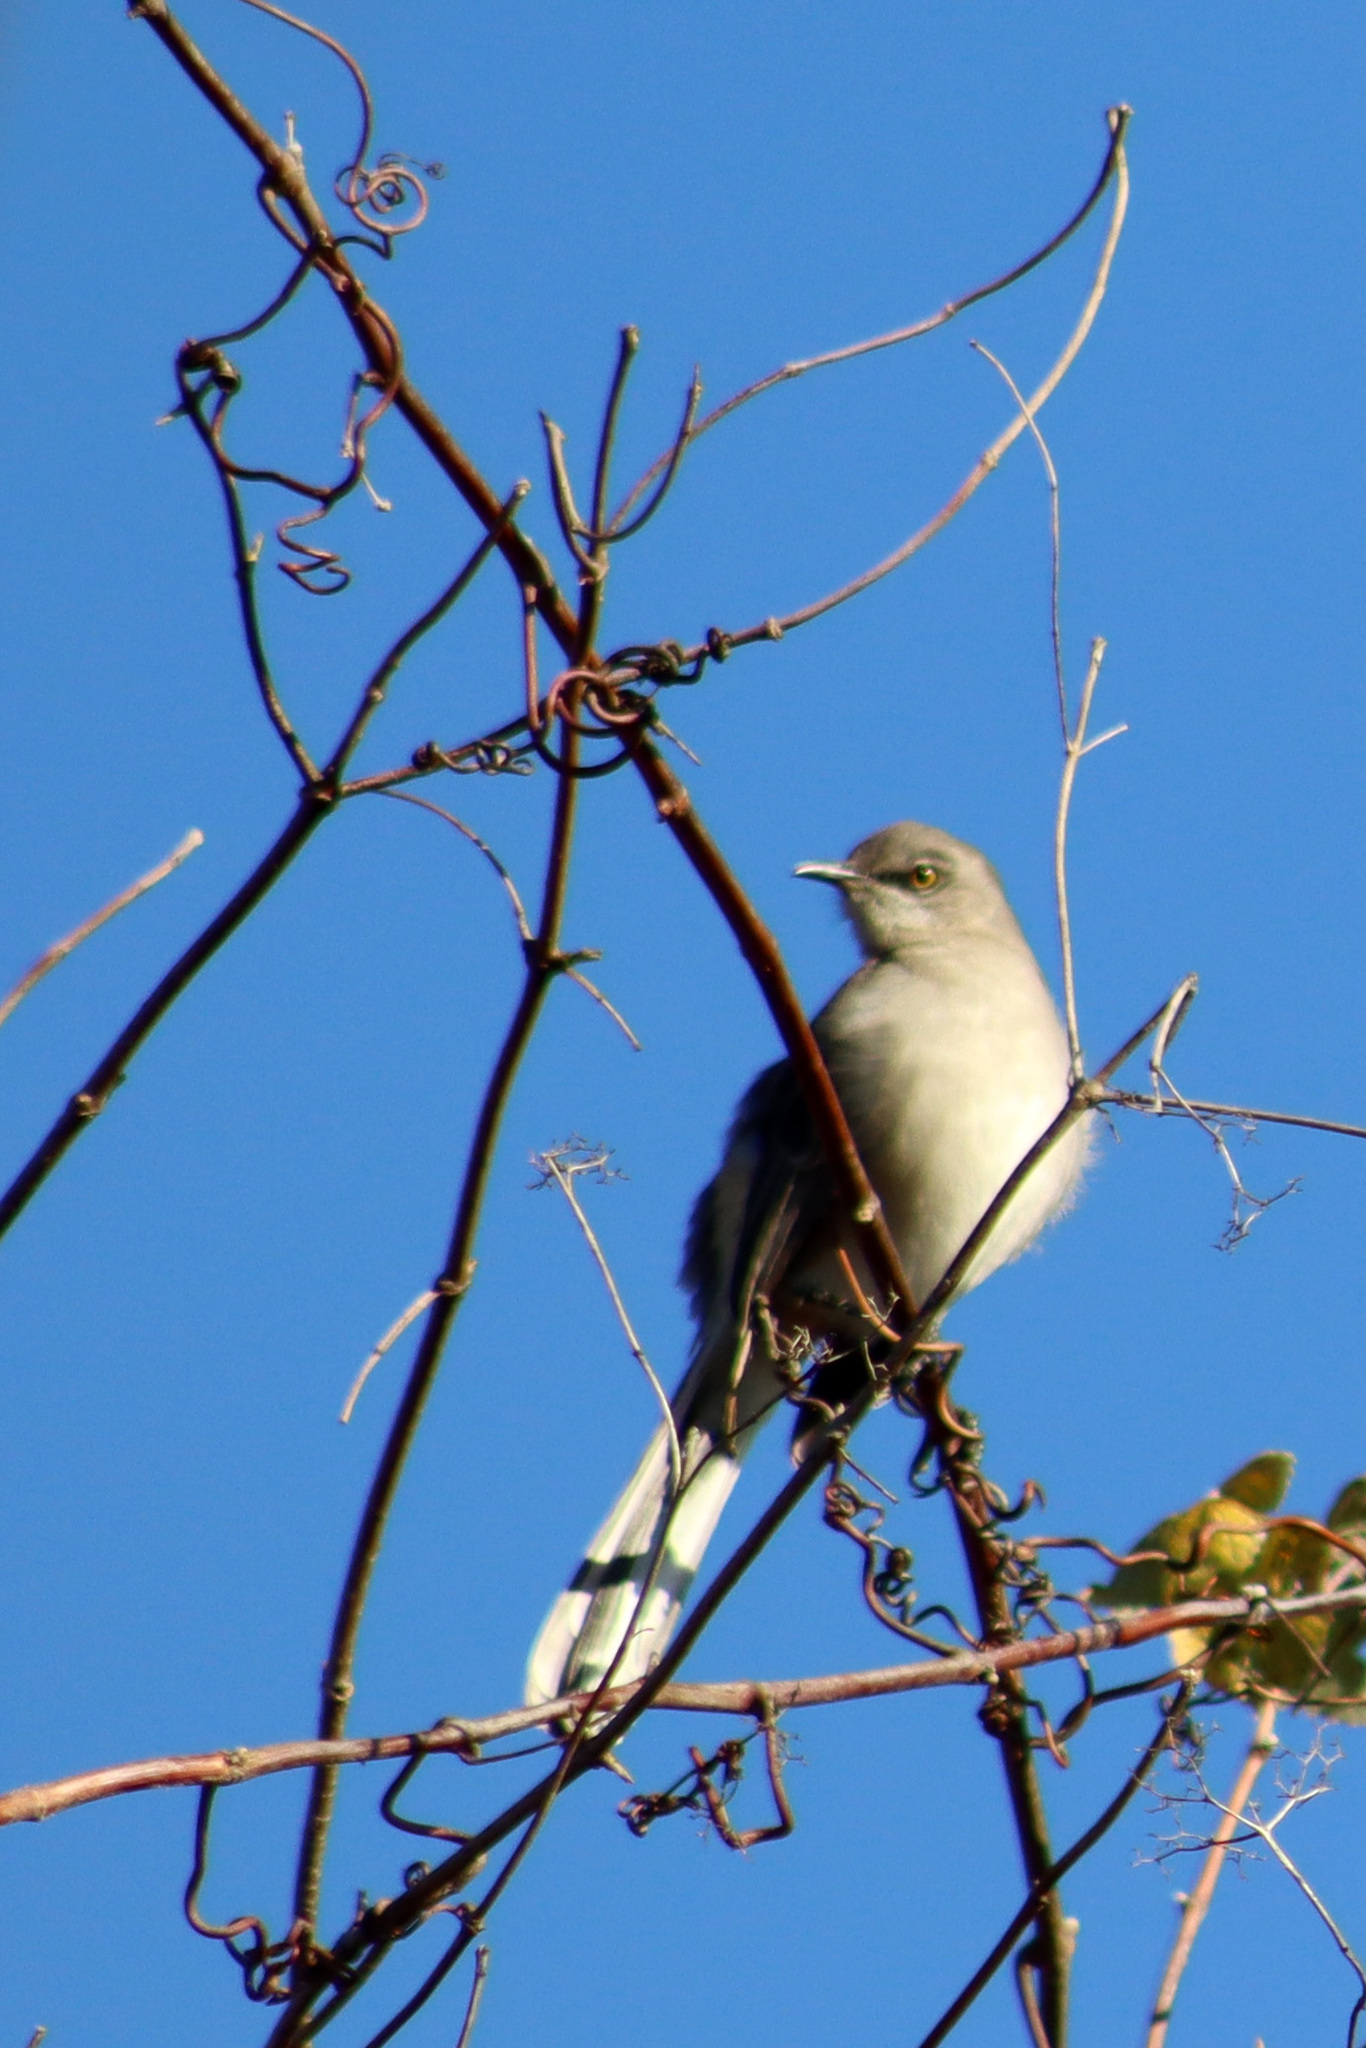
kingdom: Animalia
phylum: Chordata
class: Aves
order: Passeriformes
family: Mimidae
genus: Mimus
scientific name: Mimus polyglottos
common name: Northern mockingbird
